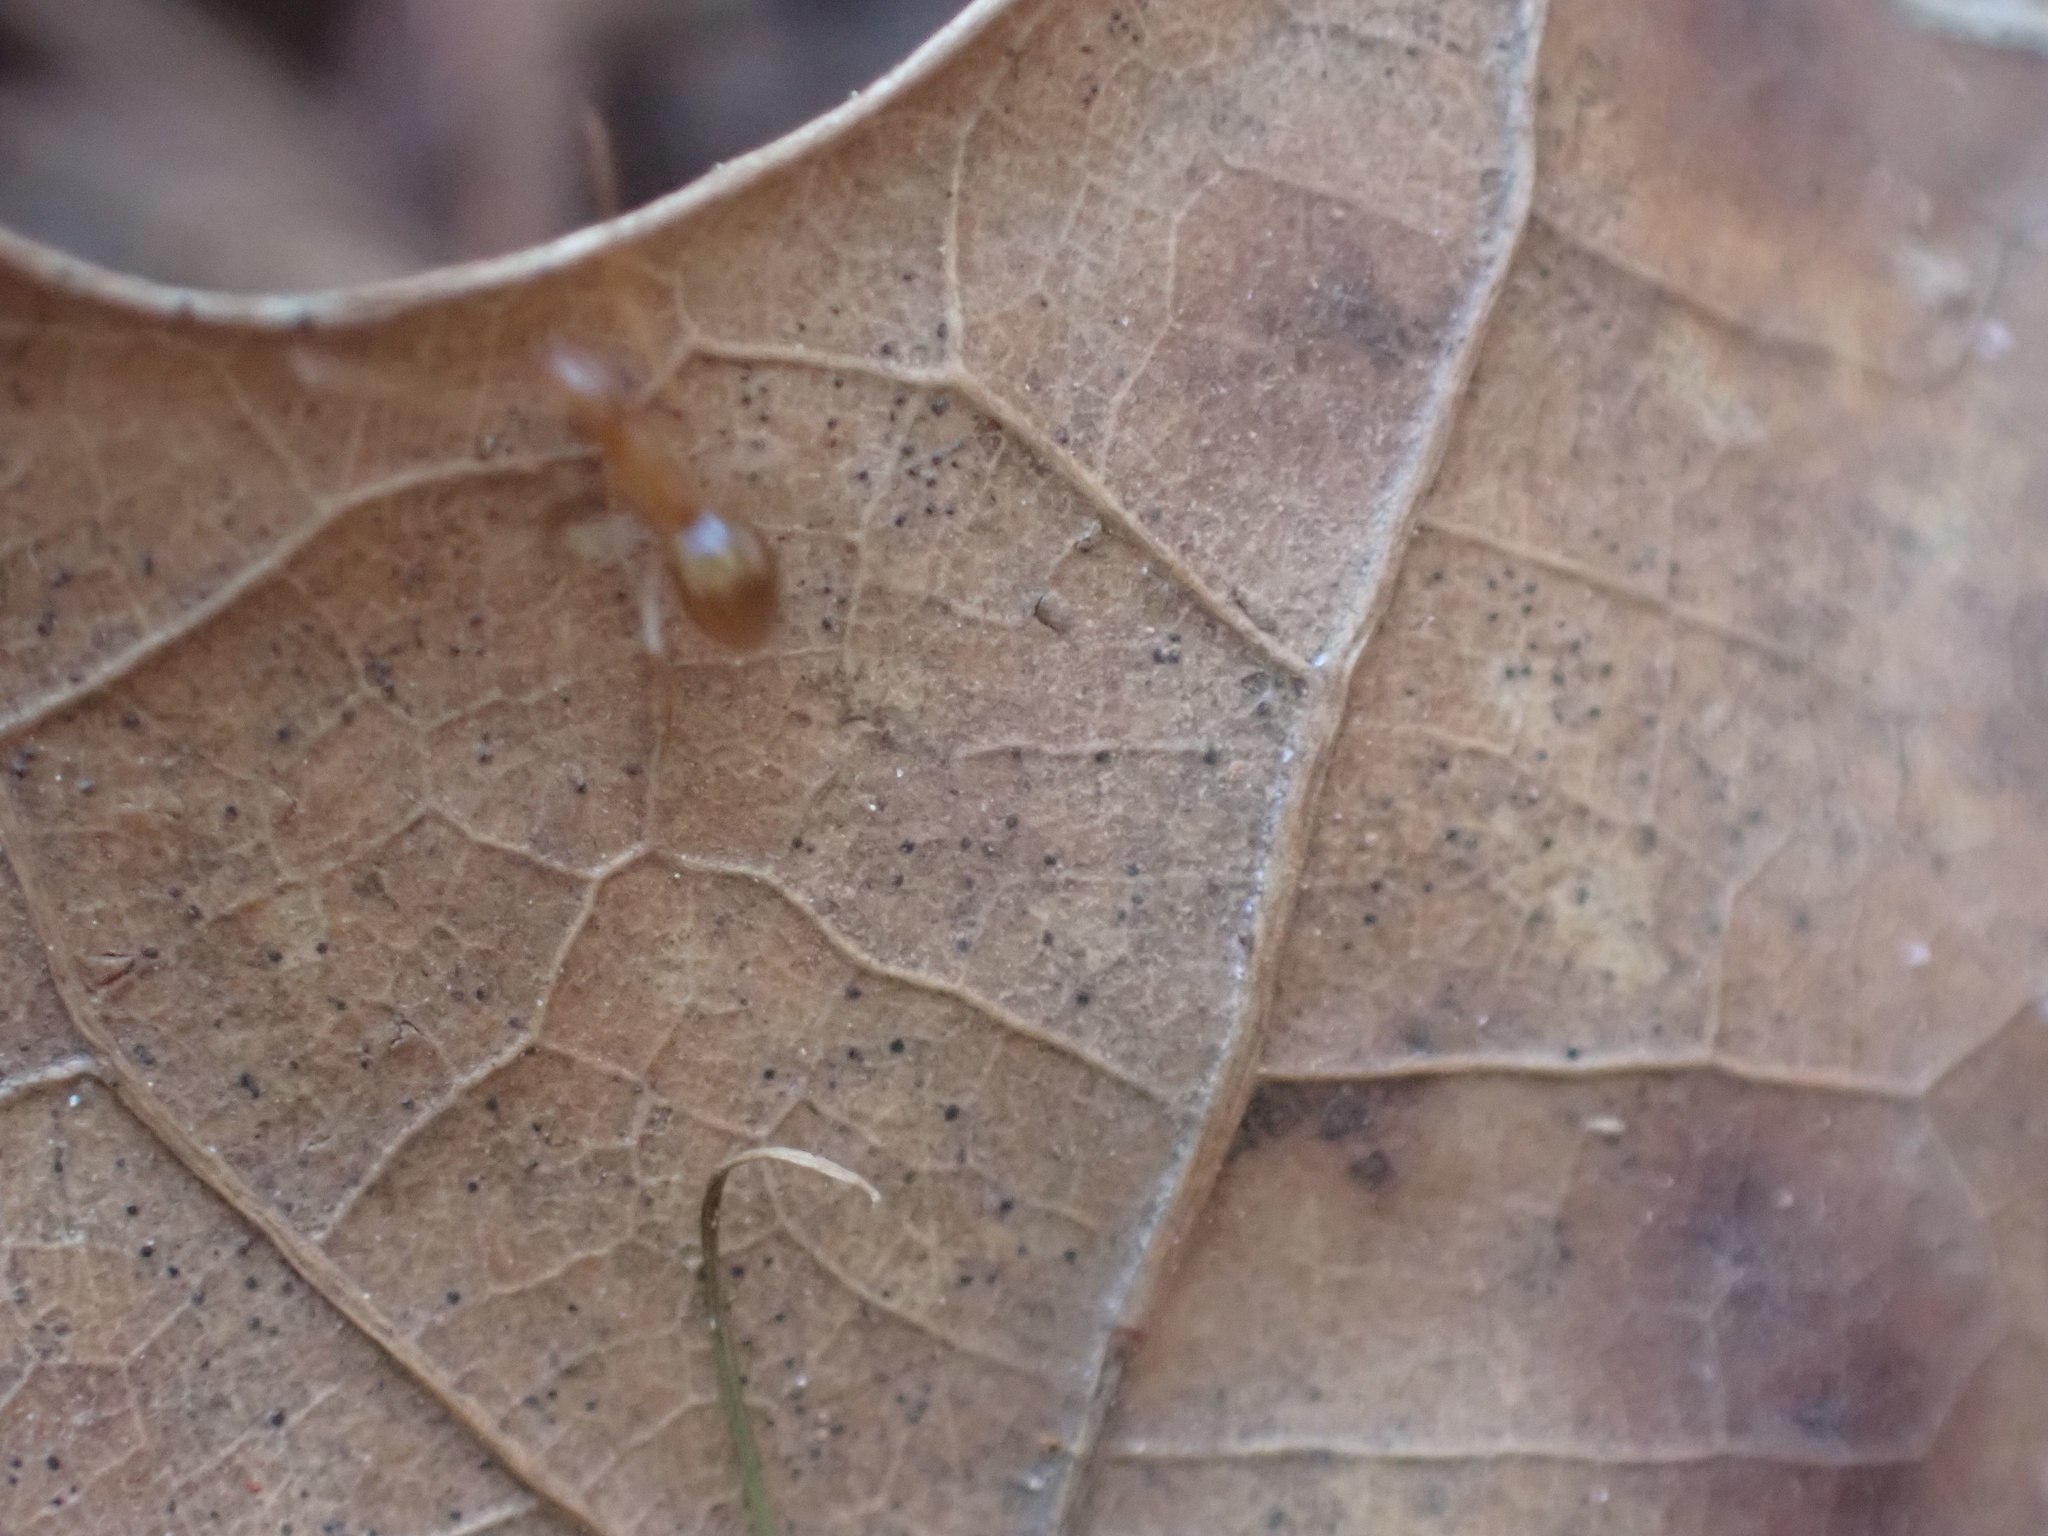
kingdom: Animalia
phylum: Arthropoda
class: Insecta
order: Hymenoptera
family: Formicidae
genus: Prenolepis
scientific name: Prenolepis imparis
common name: Small honey ant
